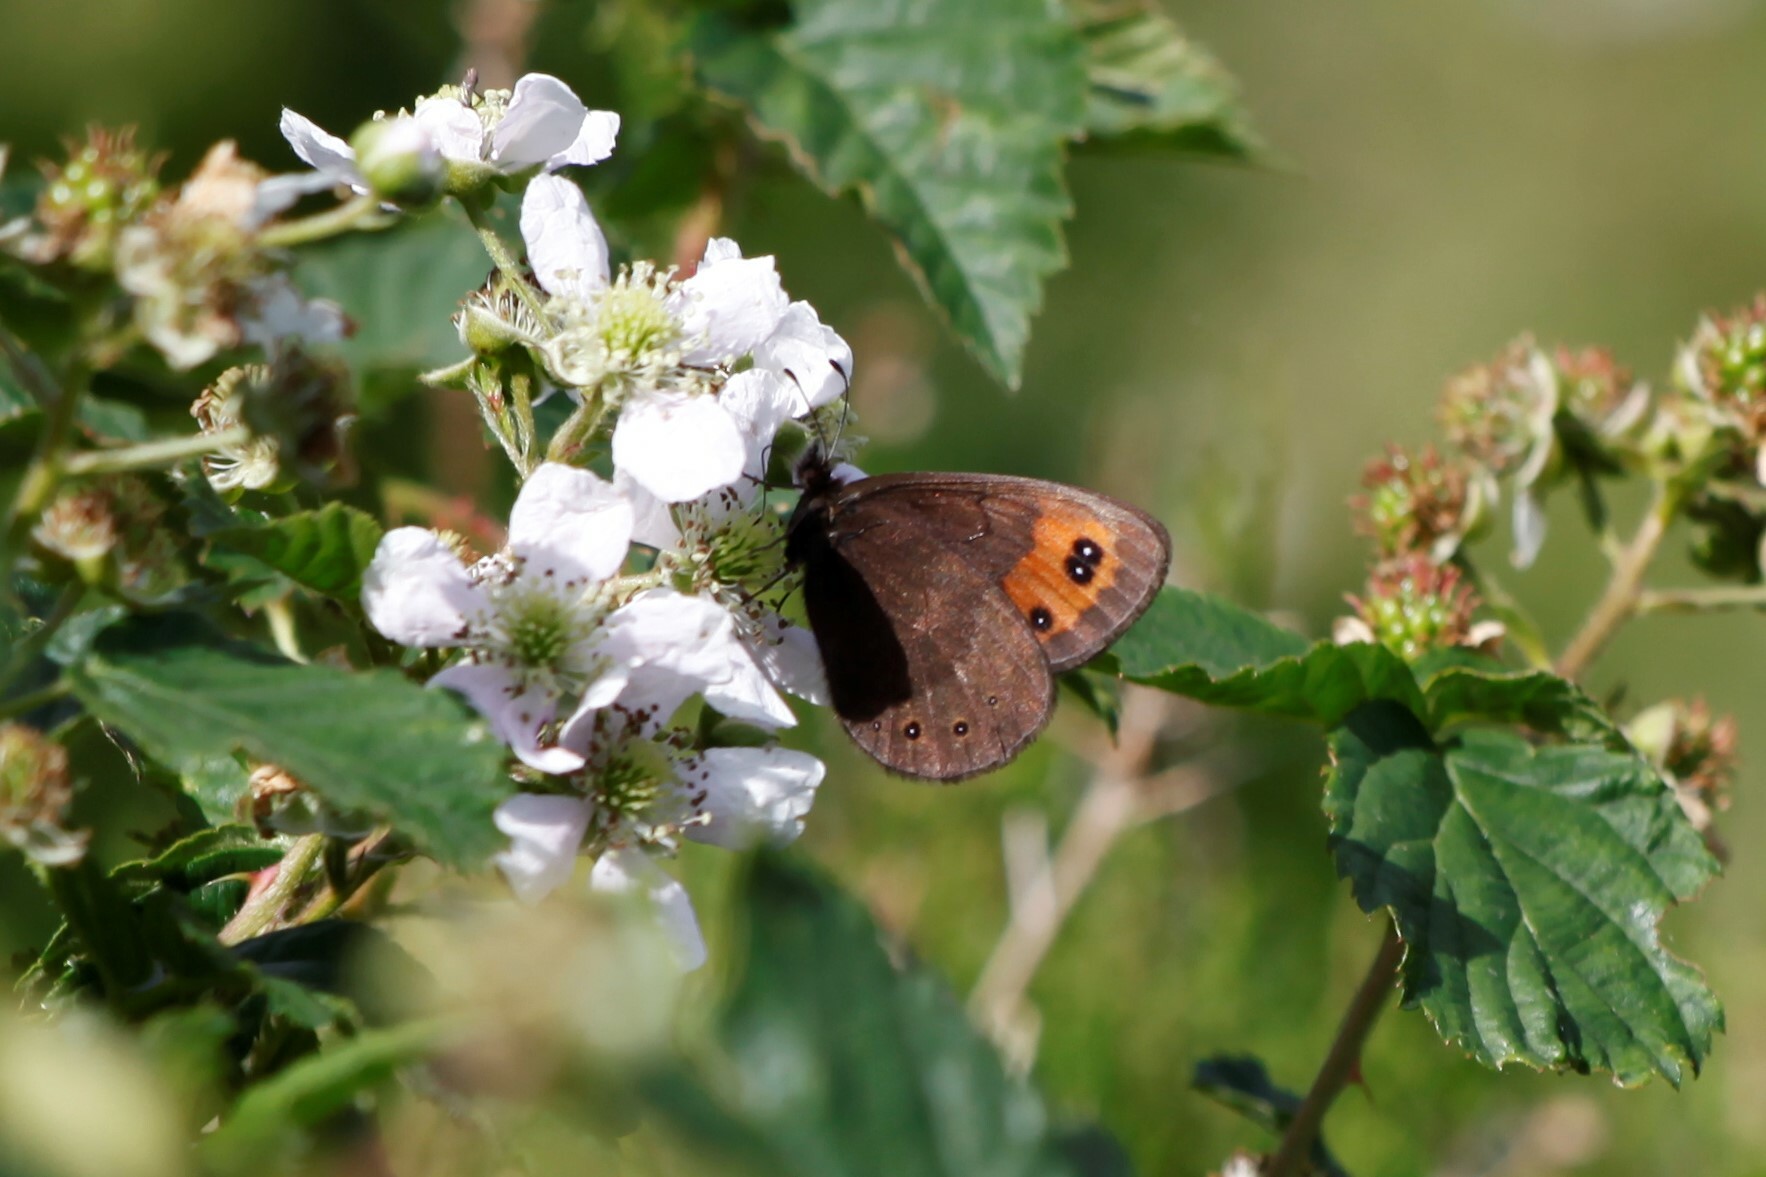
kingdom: Animalia
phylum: Arthropoda
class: Insecta
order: Lepidoptera
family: Nymphalidae
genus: Erebia
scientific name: Erebia meolans
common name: Piedmont ringlet
